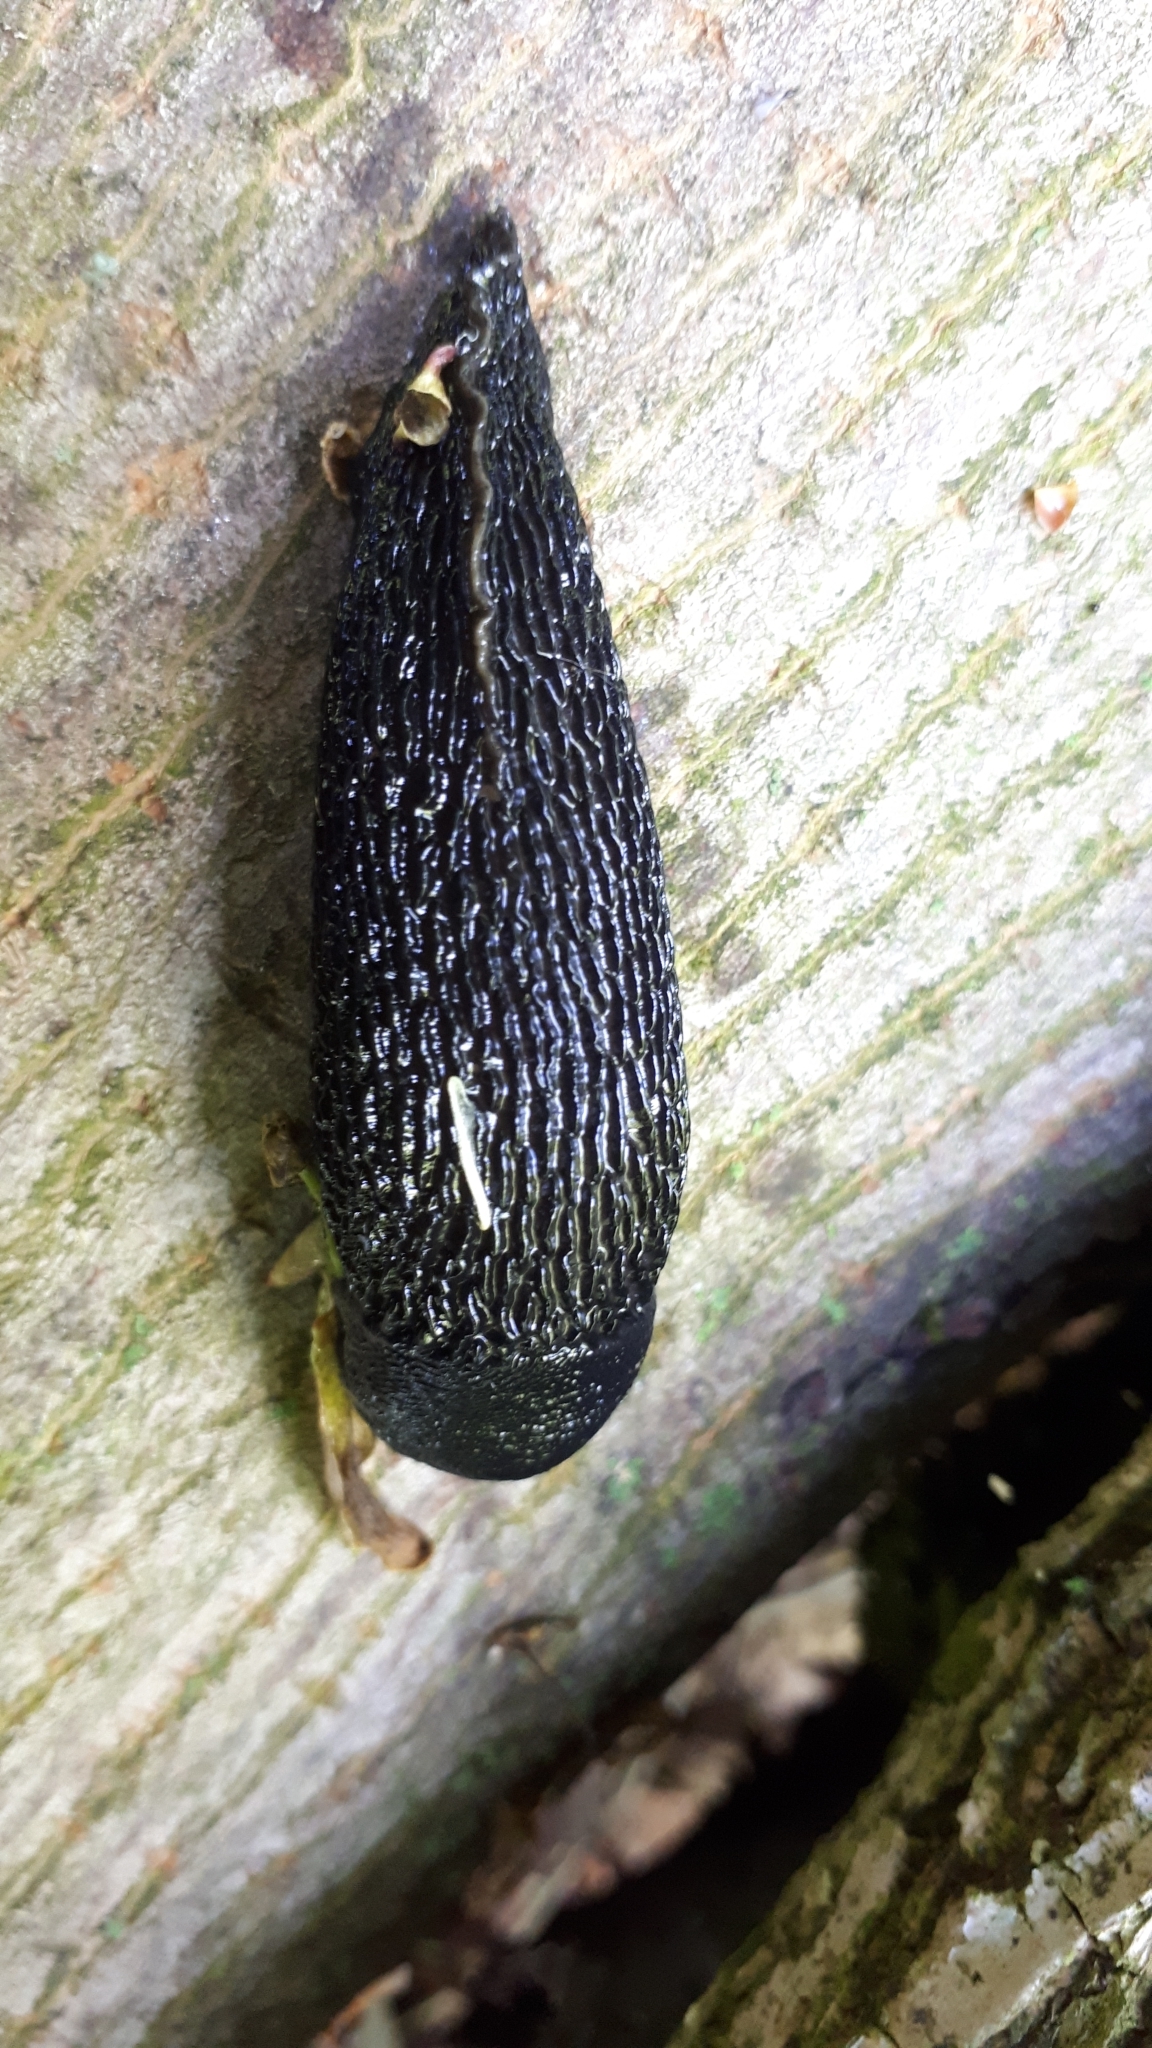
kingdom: Animalia
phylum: Mollusca
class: Gastropoda
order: Stylommatophora
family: Limacidae
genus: Limax
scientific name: Limax cinereoniger
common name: Ash-black slug
